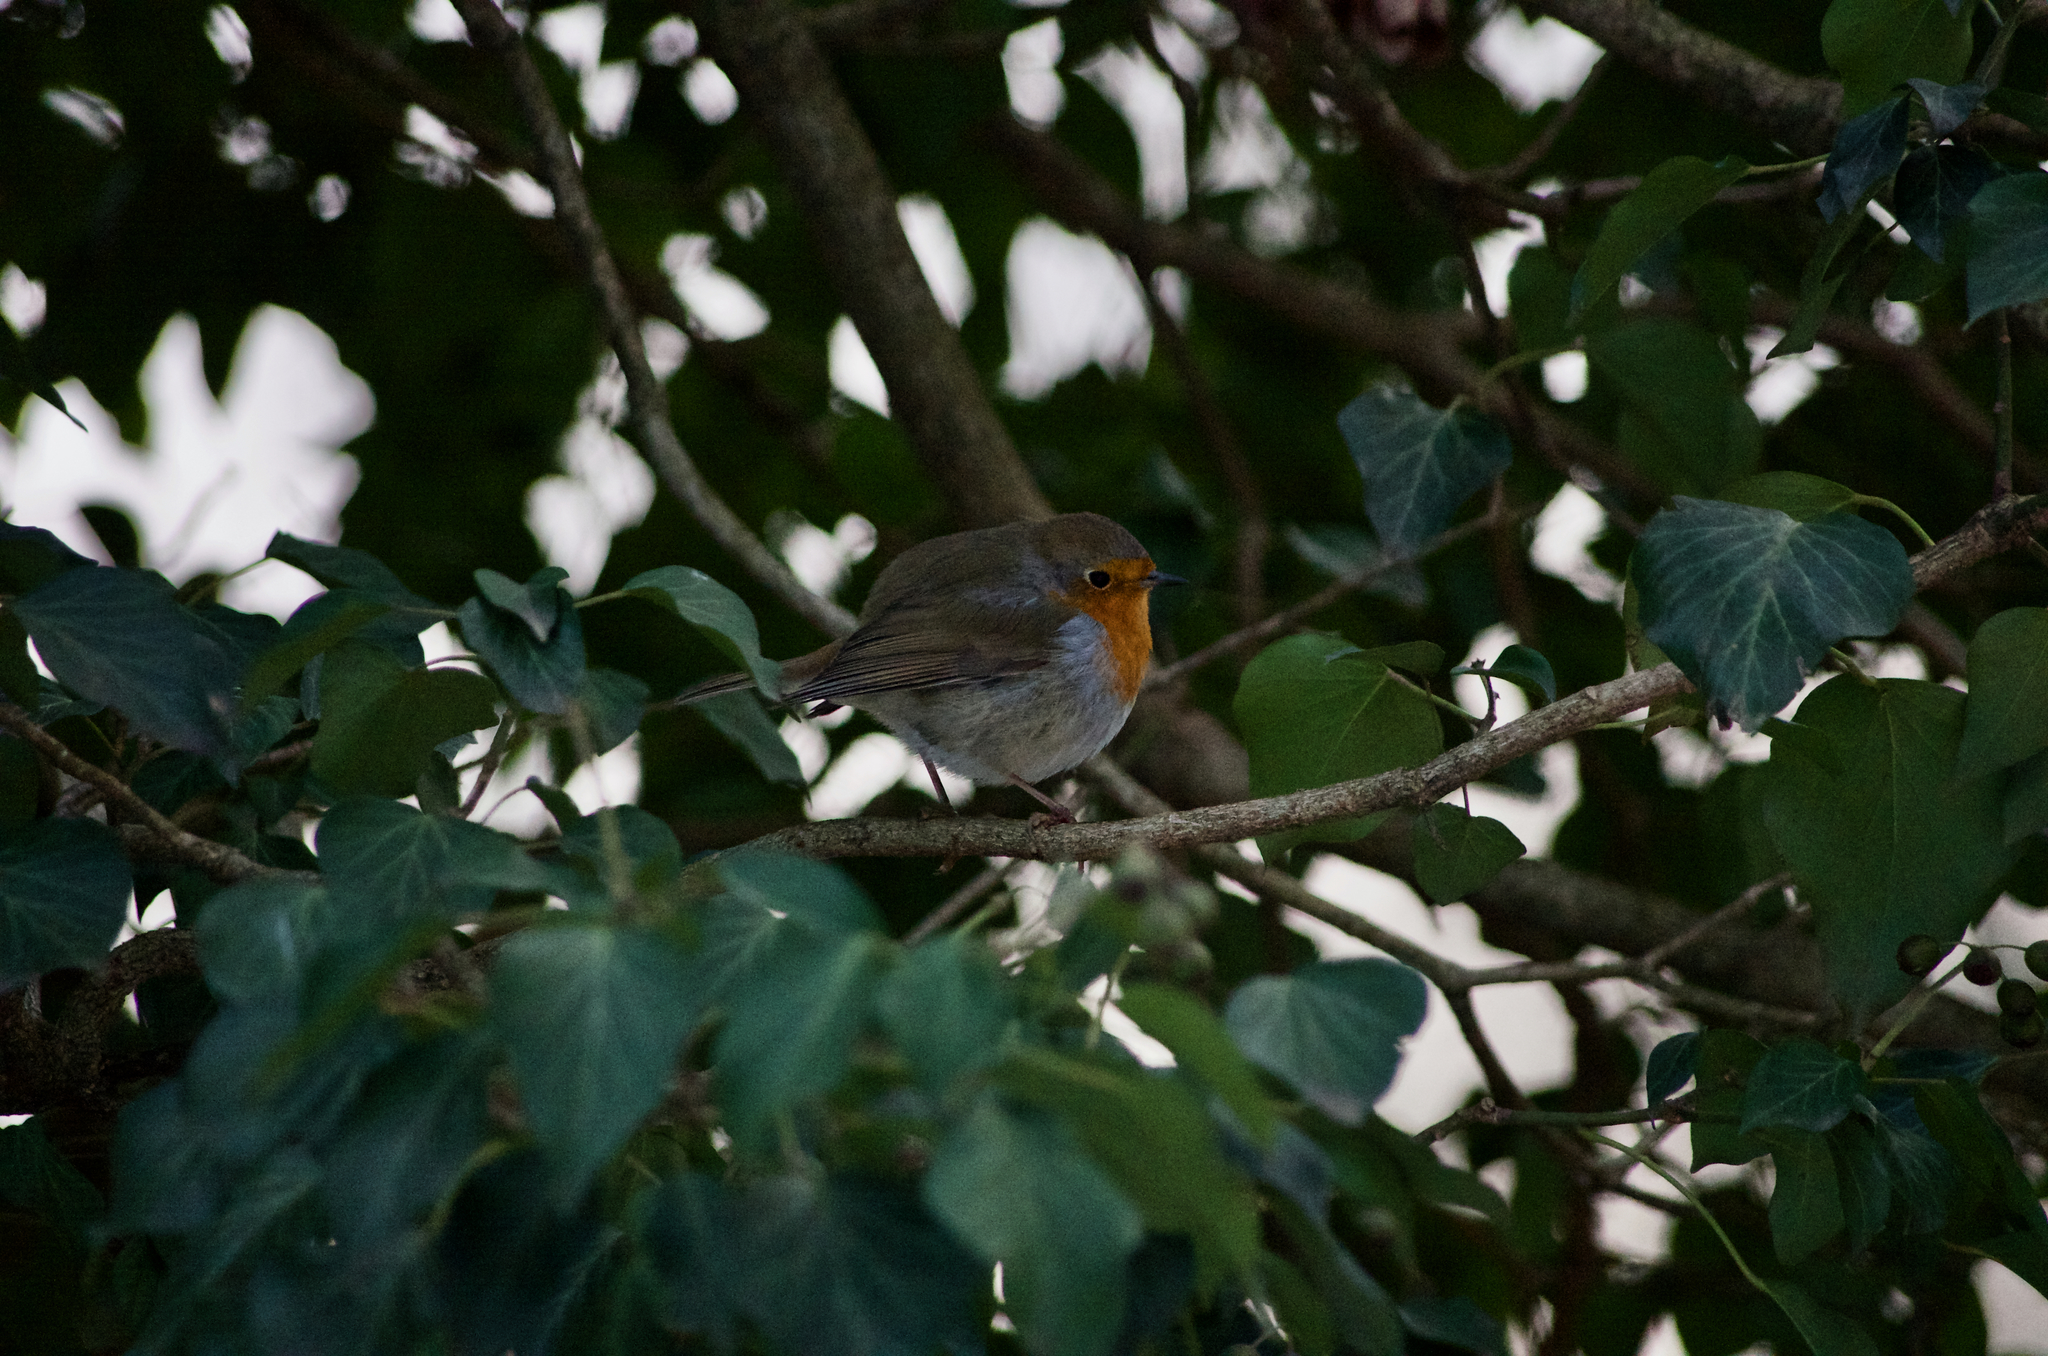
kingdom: Animalia
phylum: Chordata
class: Aves
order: Passeriformes
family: Muscicapidae
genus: Erithacus
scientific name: Erithacus rubecula
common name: European robin
